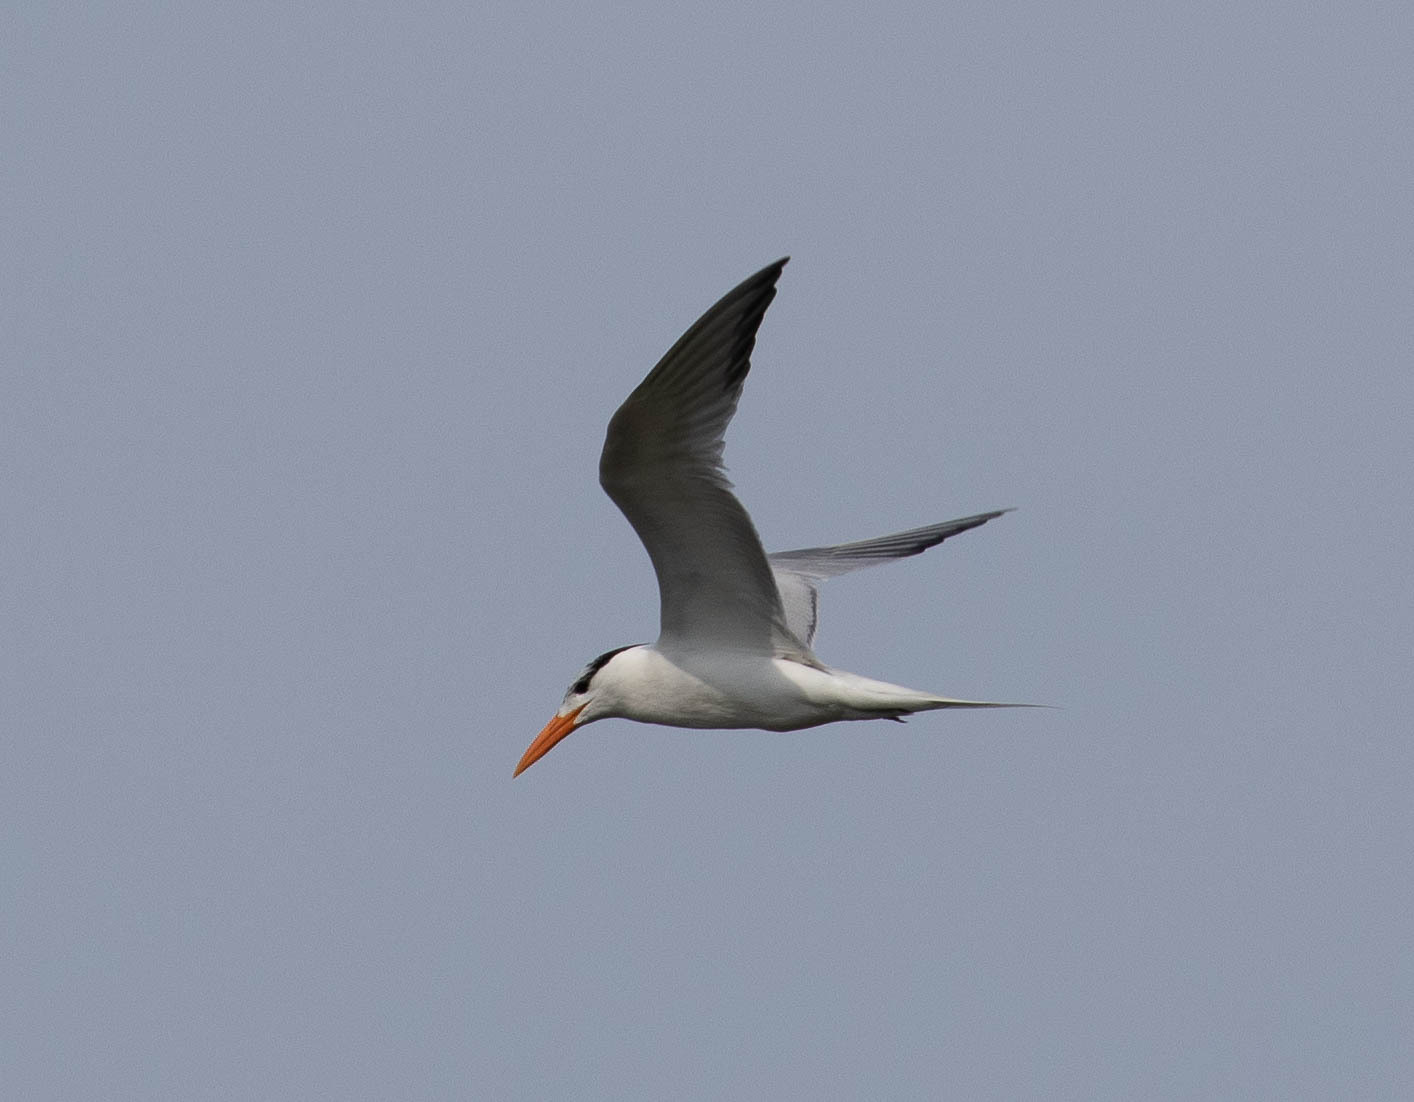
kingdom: Animalia
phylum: Chordata
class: Aves
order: Charadriiformes
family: Laridae
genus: Thalasseus
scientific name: Thalasseus maximus
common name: Royal tern
